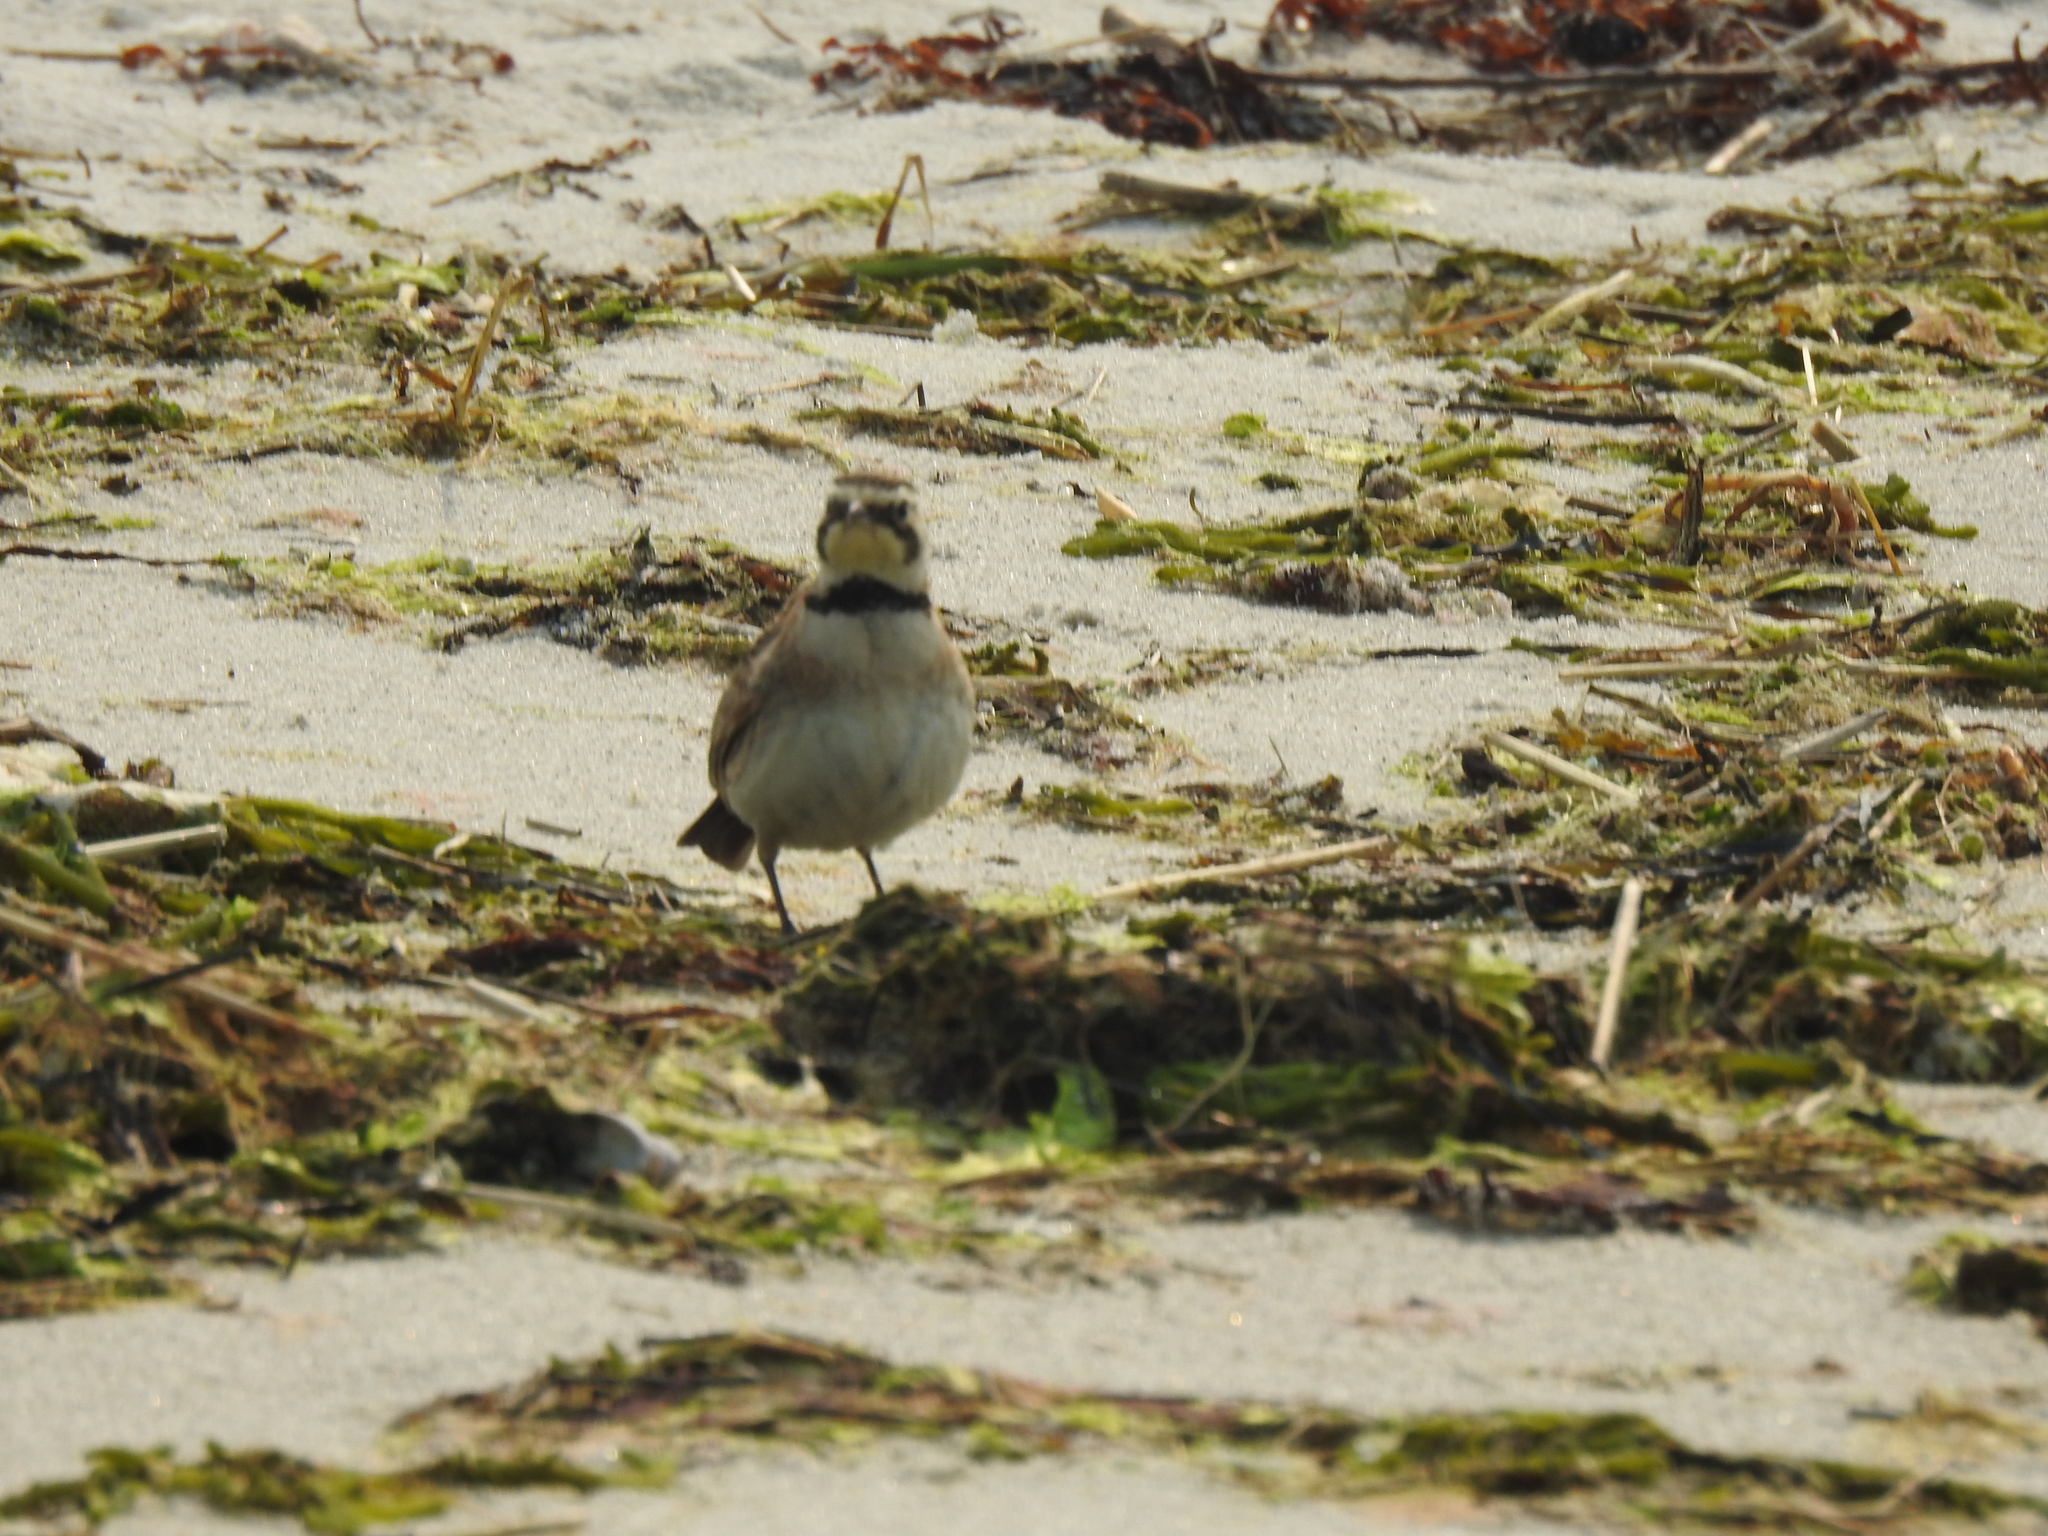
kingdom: Animalia
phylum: Chordata
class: Aves
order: Passeriformes
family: Alaudidae
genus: Eremophila
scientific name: Eremophila alpestris
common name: Horned lark
